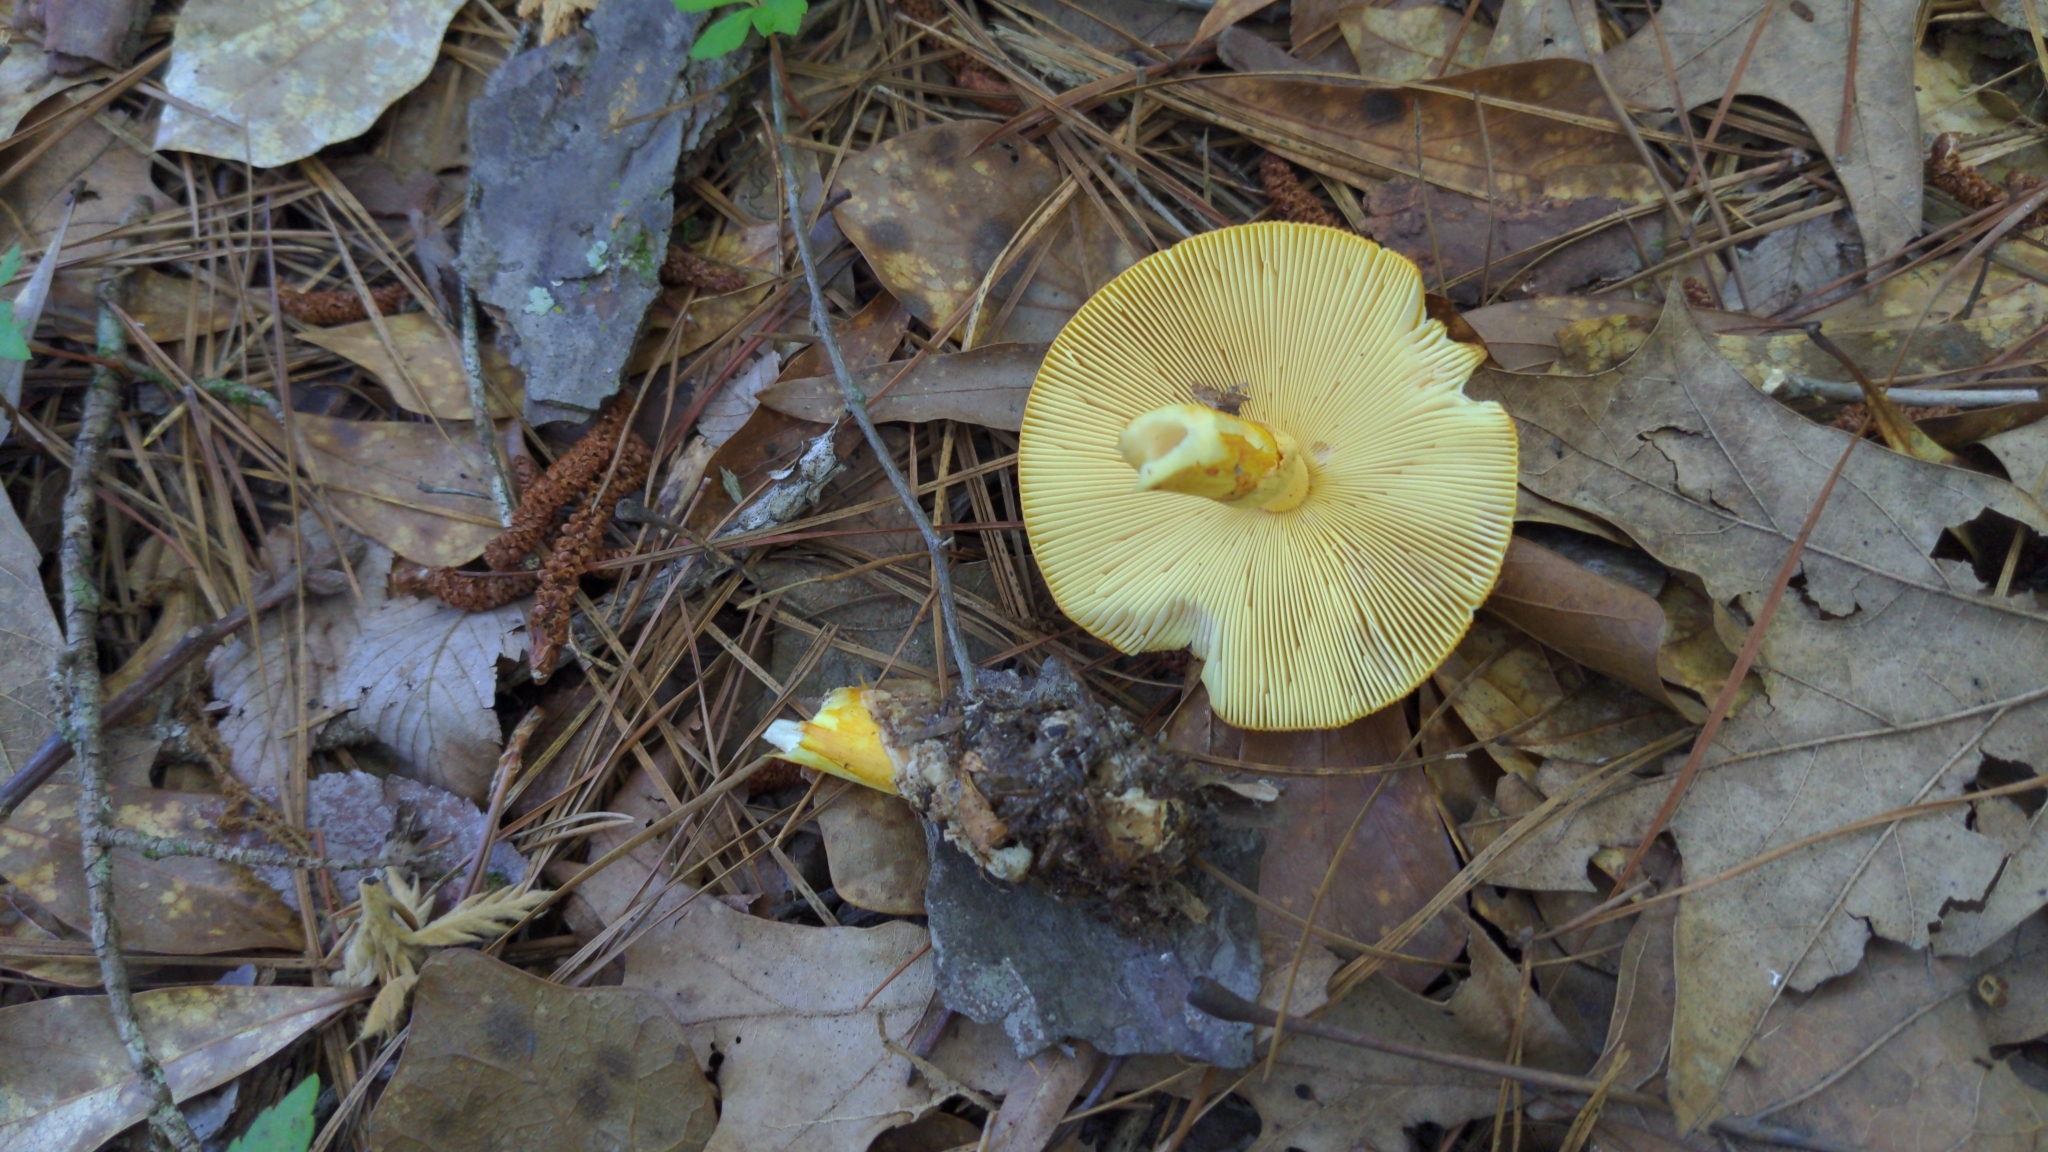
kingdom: Fungi
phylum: Basidiomycota
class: Agaricomycetes
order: Agaricales
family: Amanitaceae
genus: Amanita
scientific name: Amanita jacksonii
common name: Jackson's slender caesar
